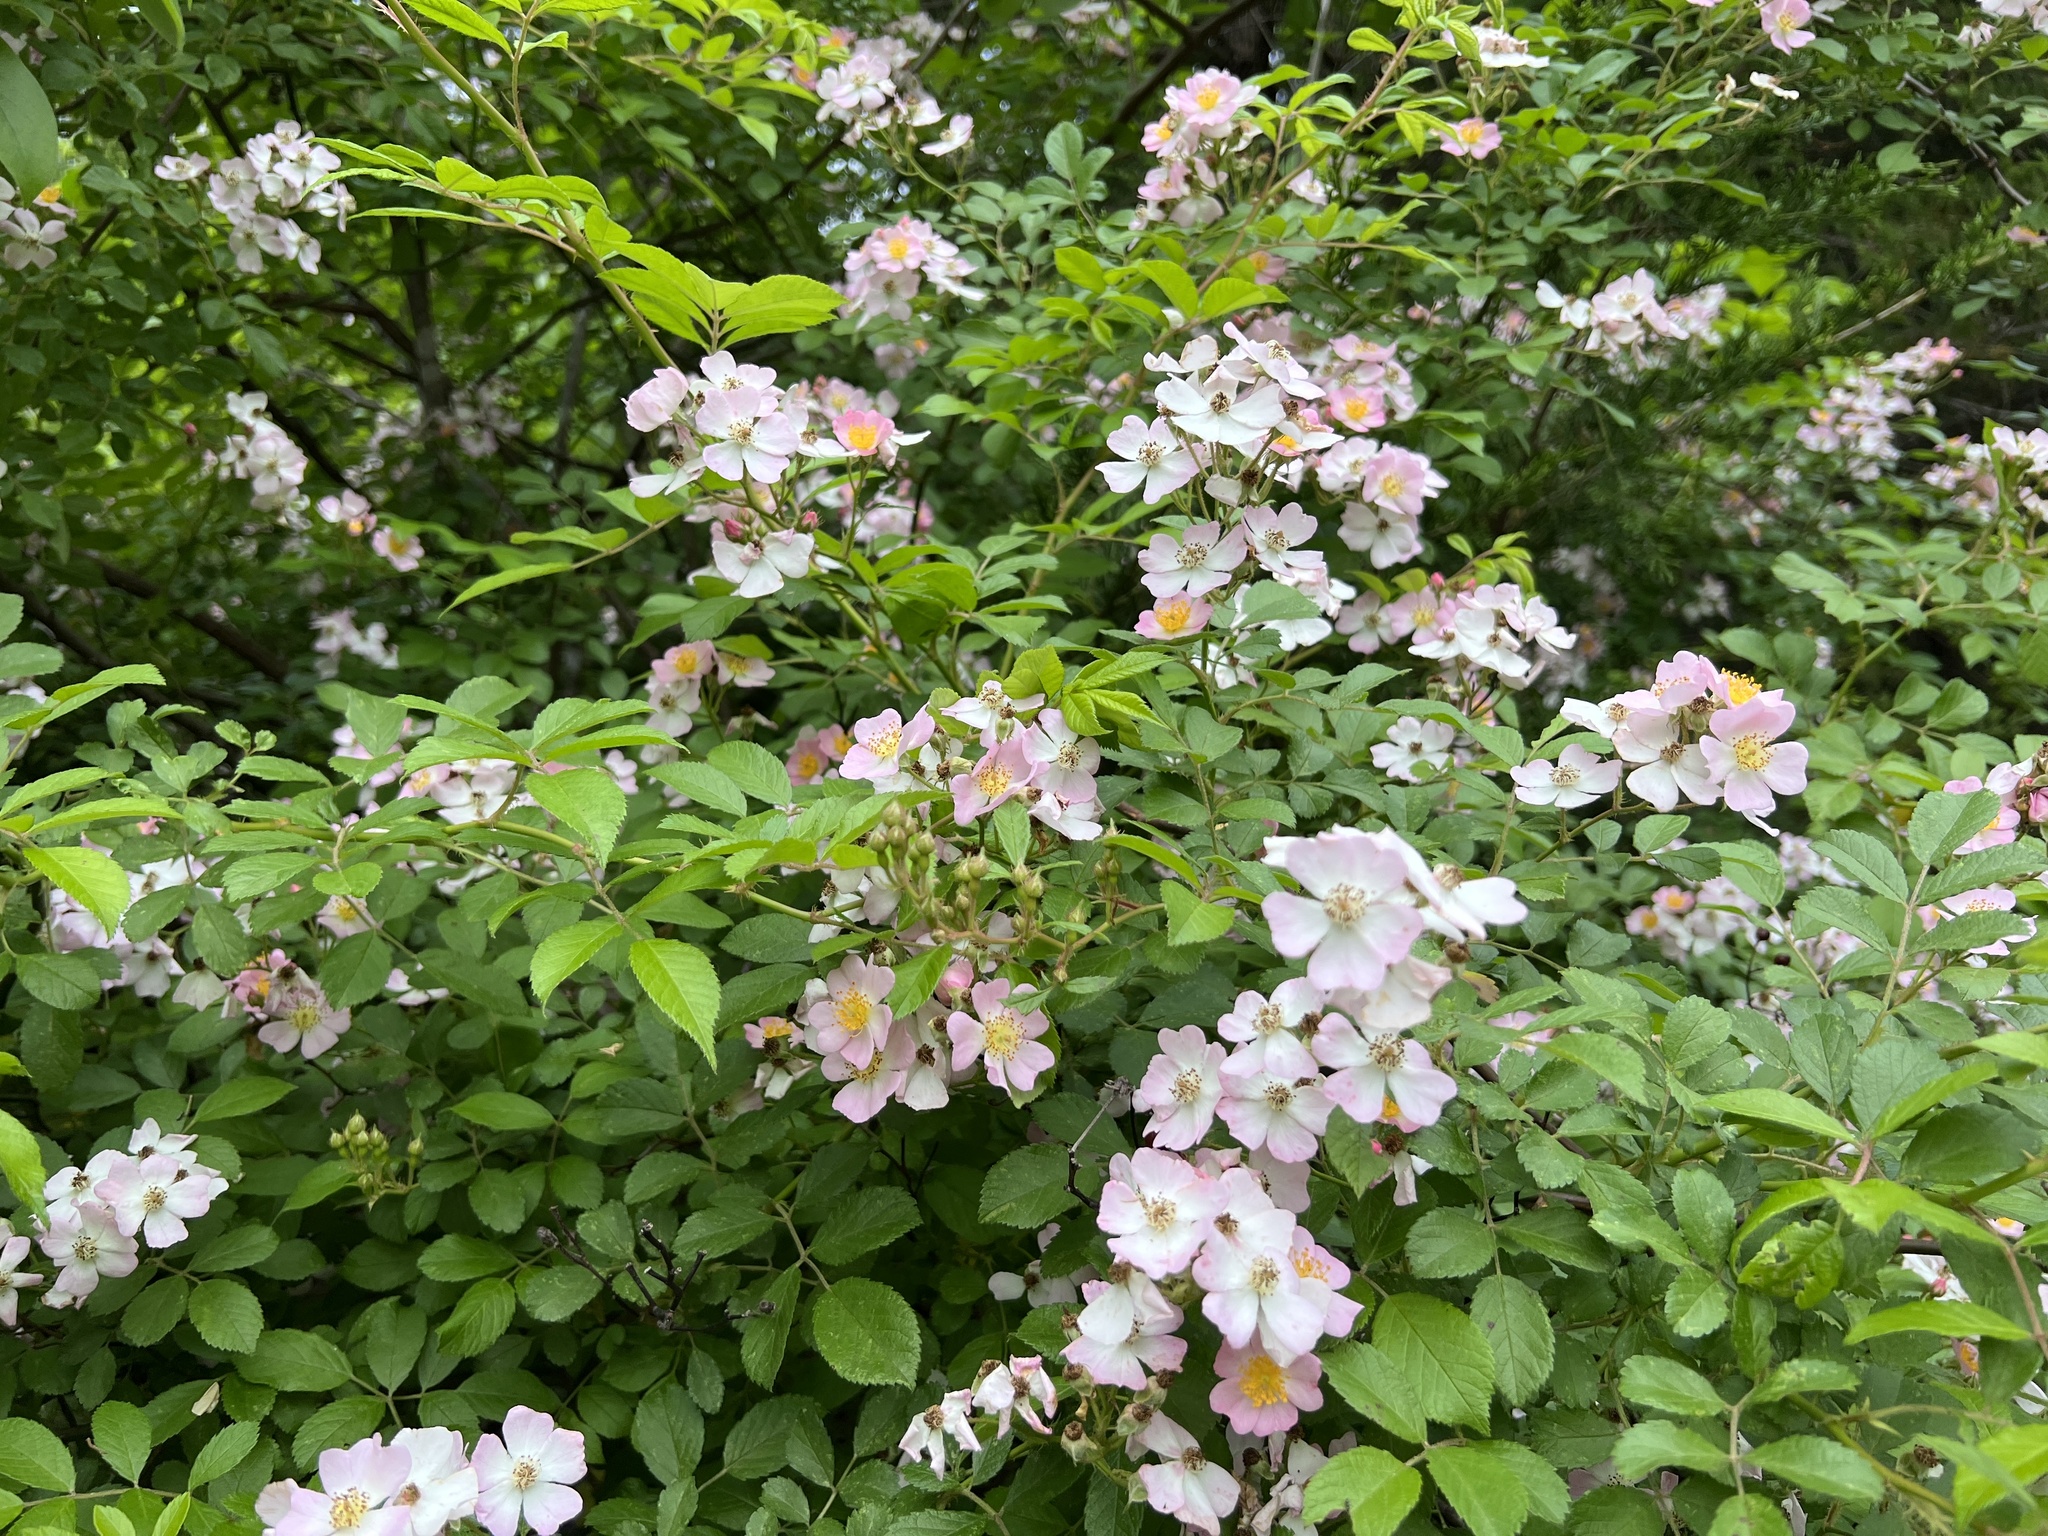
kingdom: Plantae
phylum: Tracheophyta
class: Magnoliopsida
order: Rosales
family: Rosaceae
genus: Rosa
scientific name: Rosa multiflora
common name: Multiflora rose
